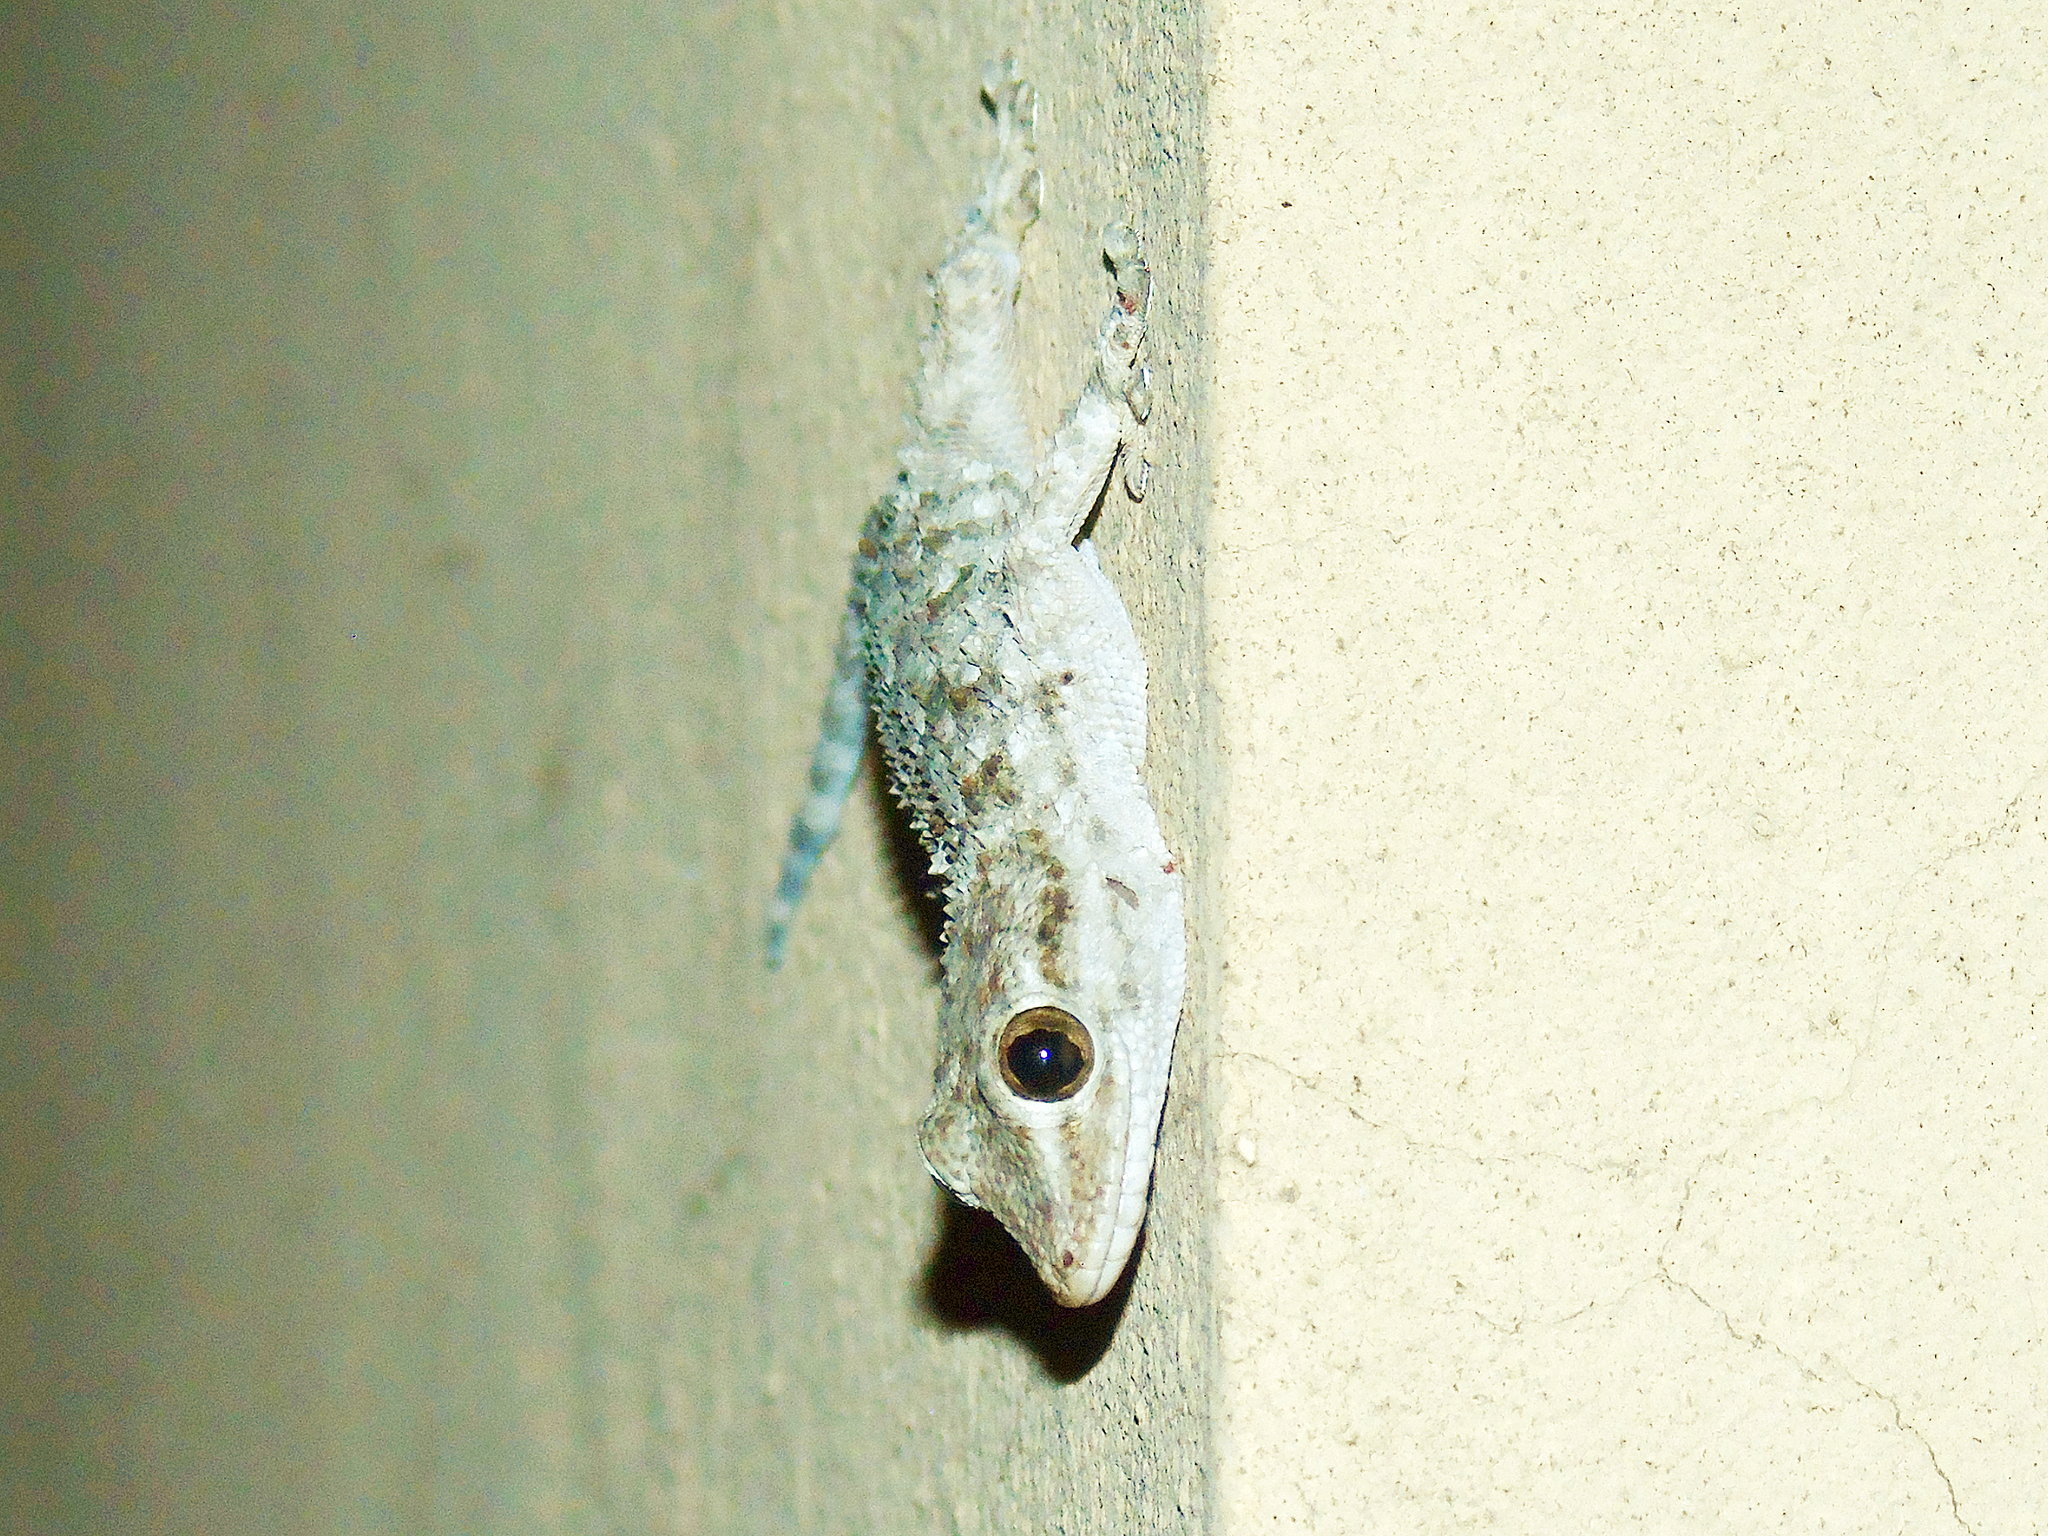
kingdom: Animalia
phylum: Chordata
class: Squamata
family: Phyllodactylidae
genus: Tarentola
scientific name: Tarentola mauritanica
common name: Moorish gecko
